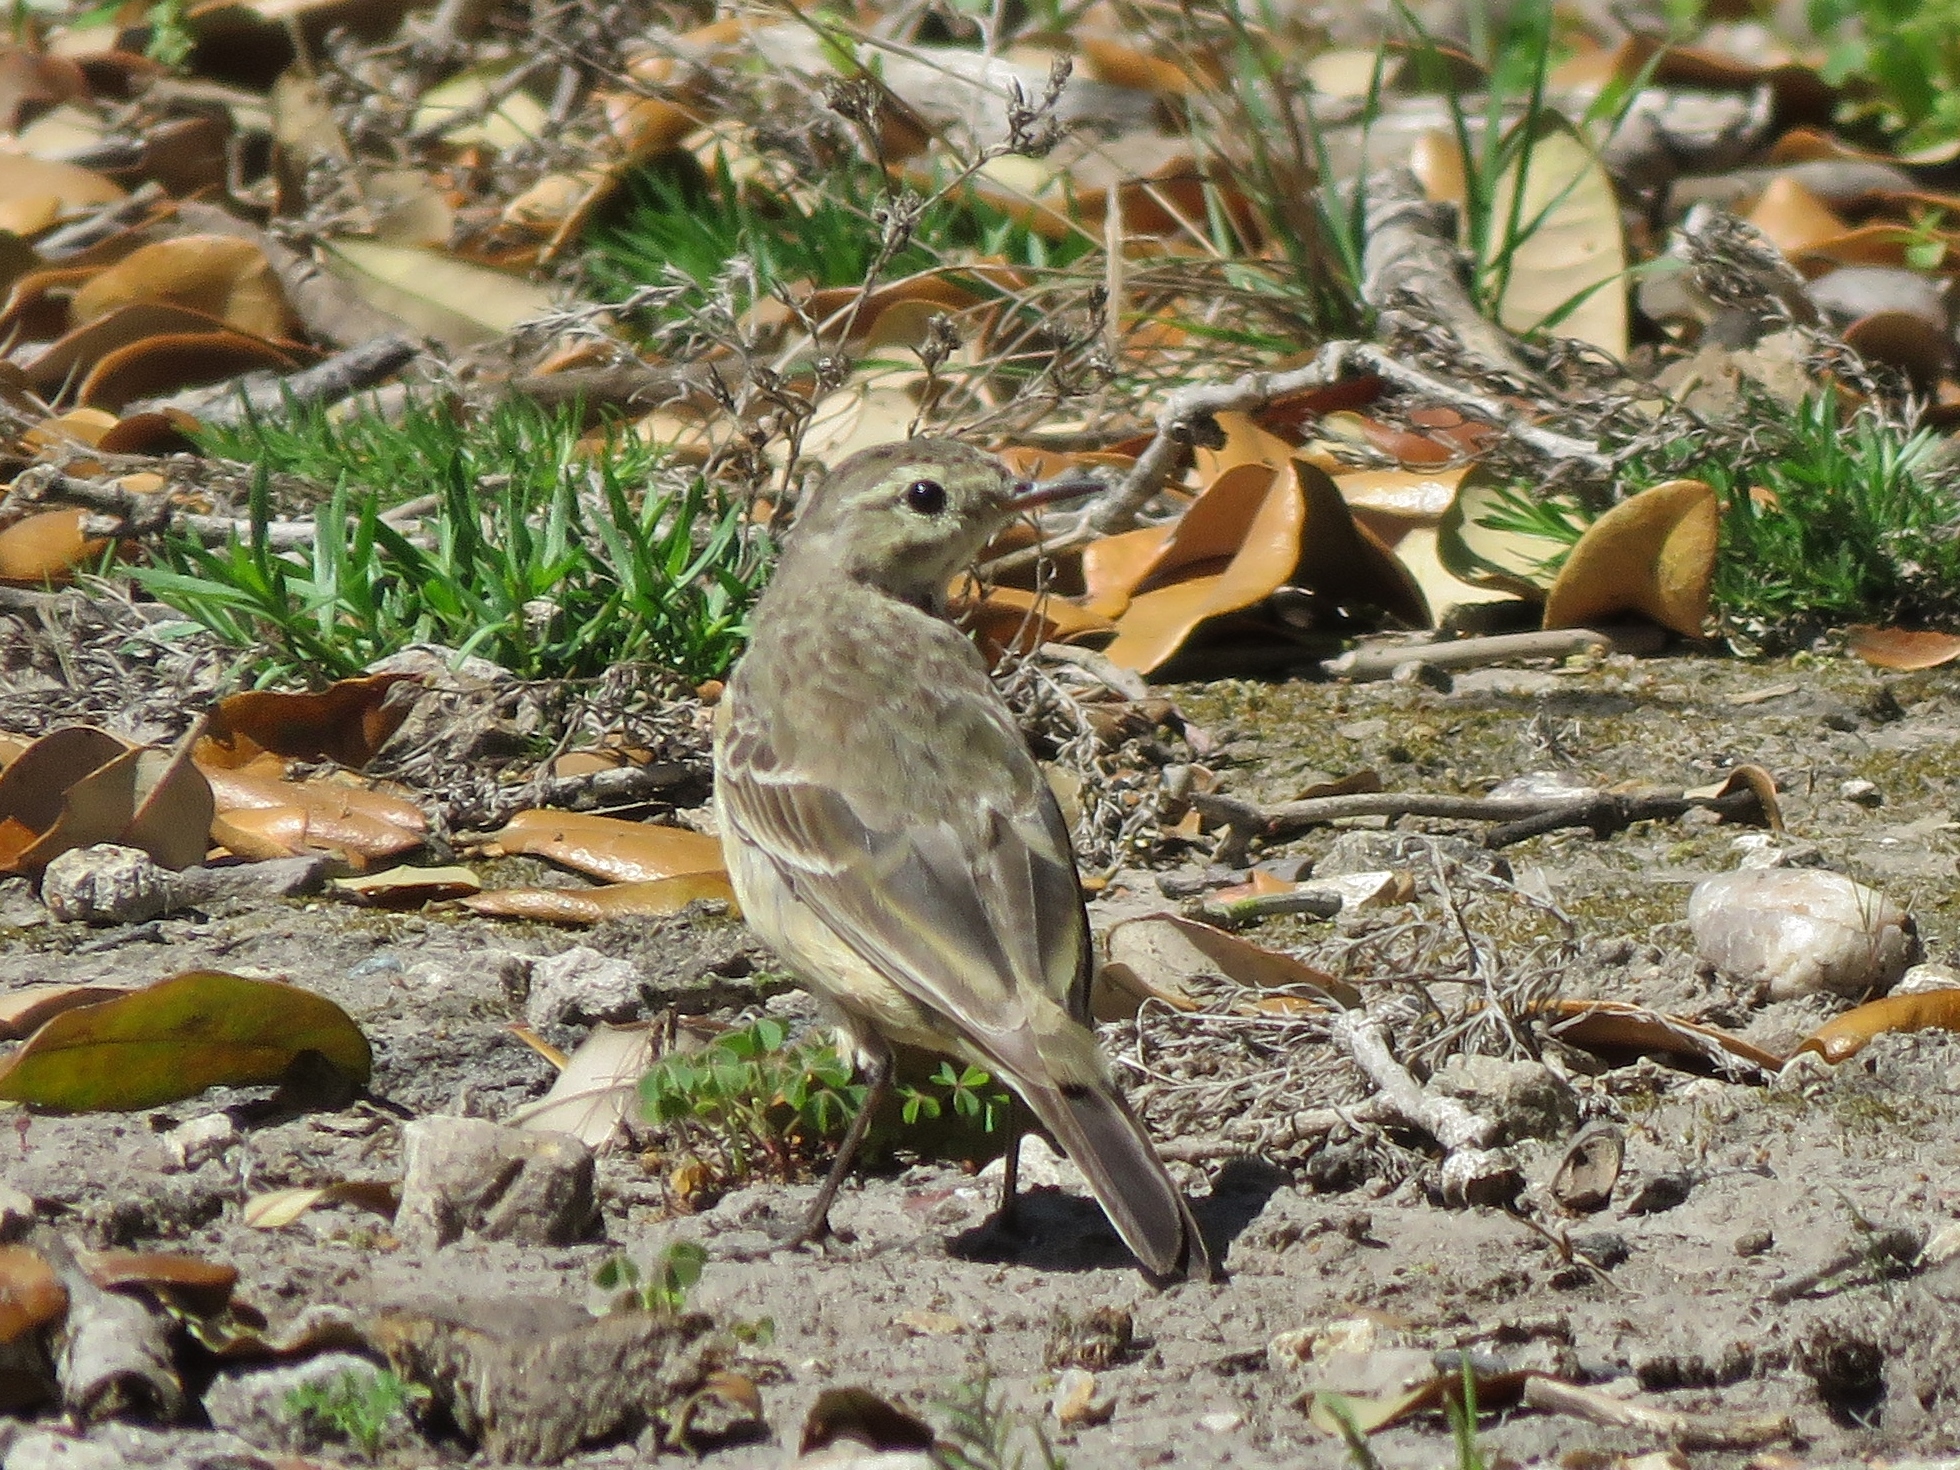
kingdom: Animalia
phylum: Chordata
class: Aves
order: Passeriformes
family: Motacillidae
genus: Anthus
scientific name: Anthus rubescens
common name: Buff-bellied pipit
